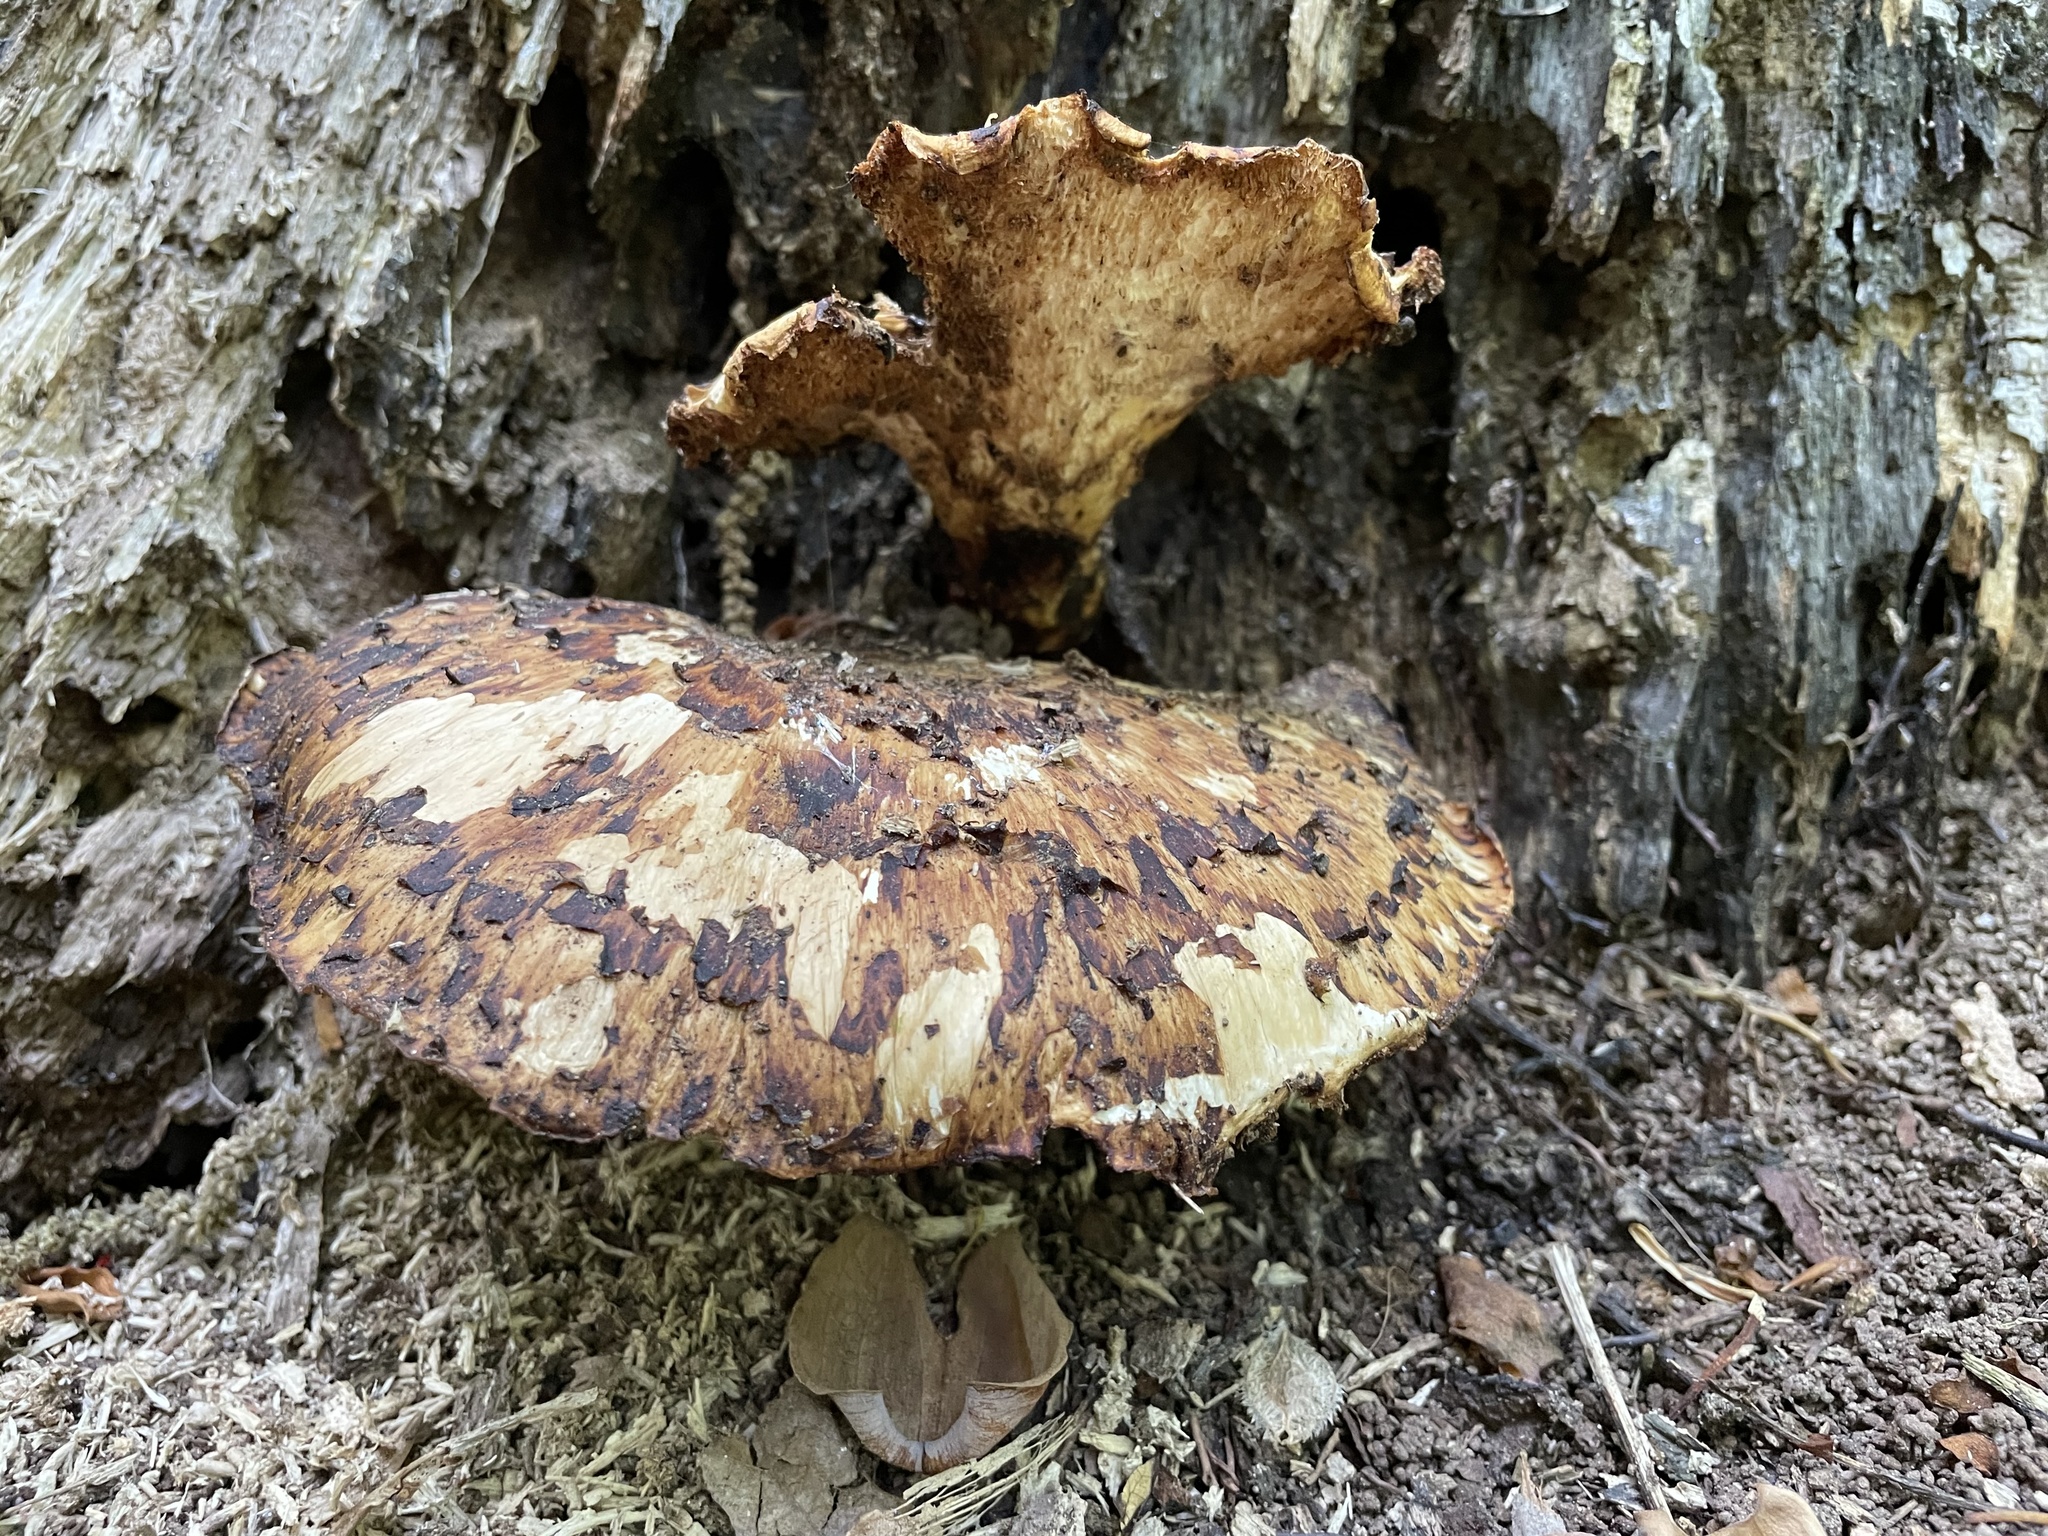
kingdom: Fungi
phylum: Basidiomycota
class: Agaricomycetes
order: Polyporales
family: Polyporaceae
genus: Cerioporus
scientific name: Cerioporus squamosus
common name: Dryad's saddle
